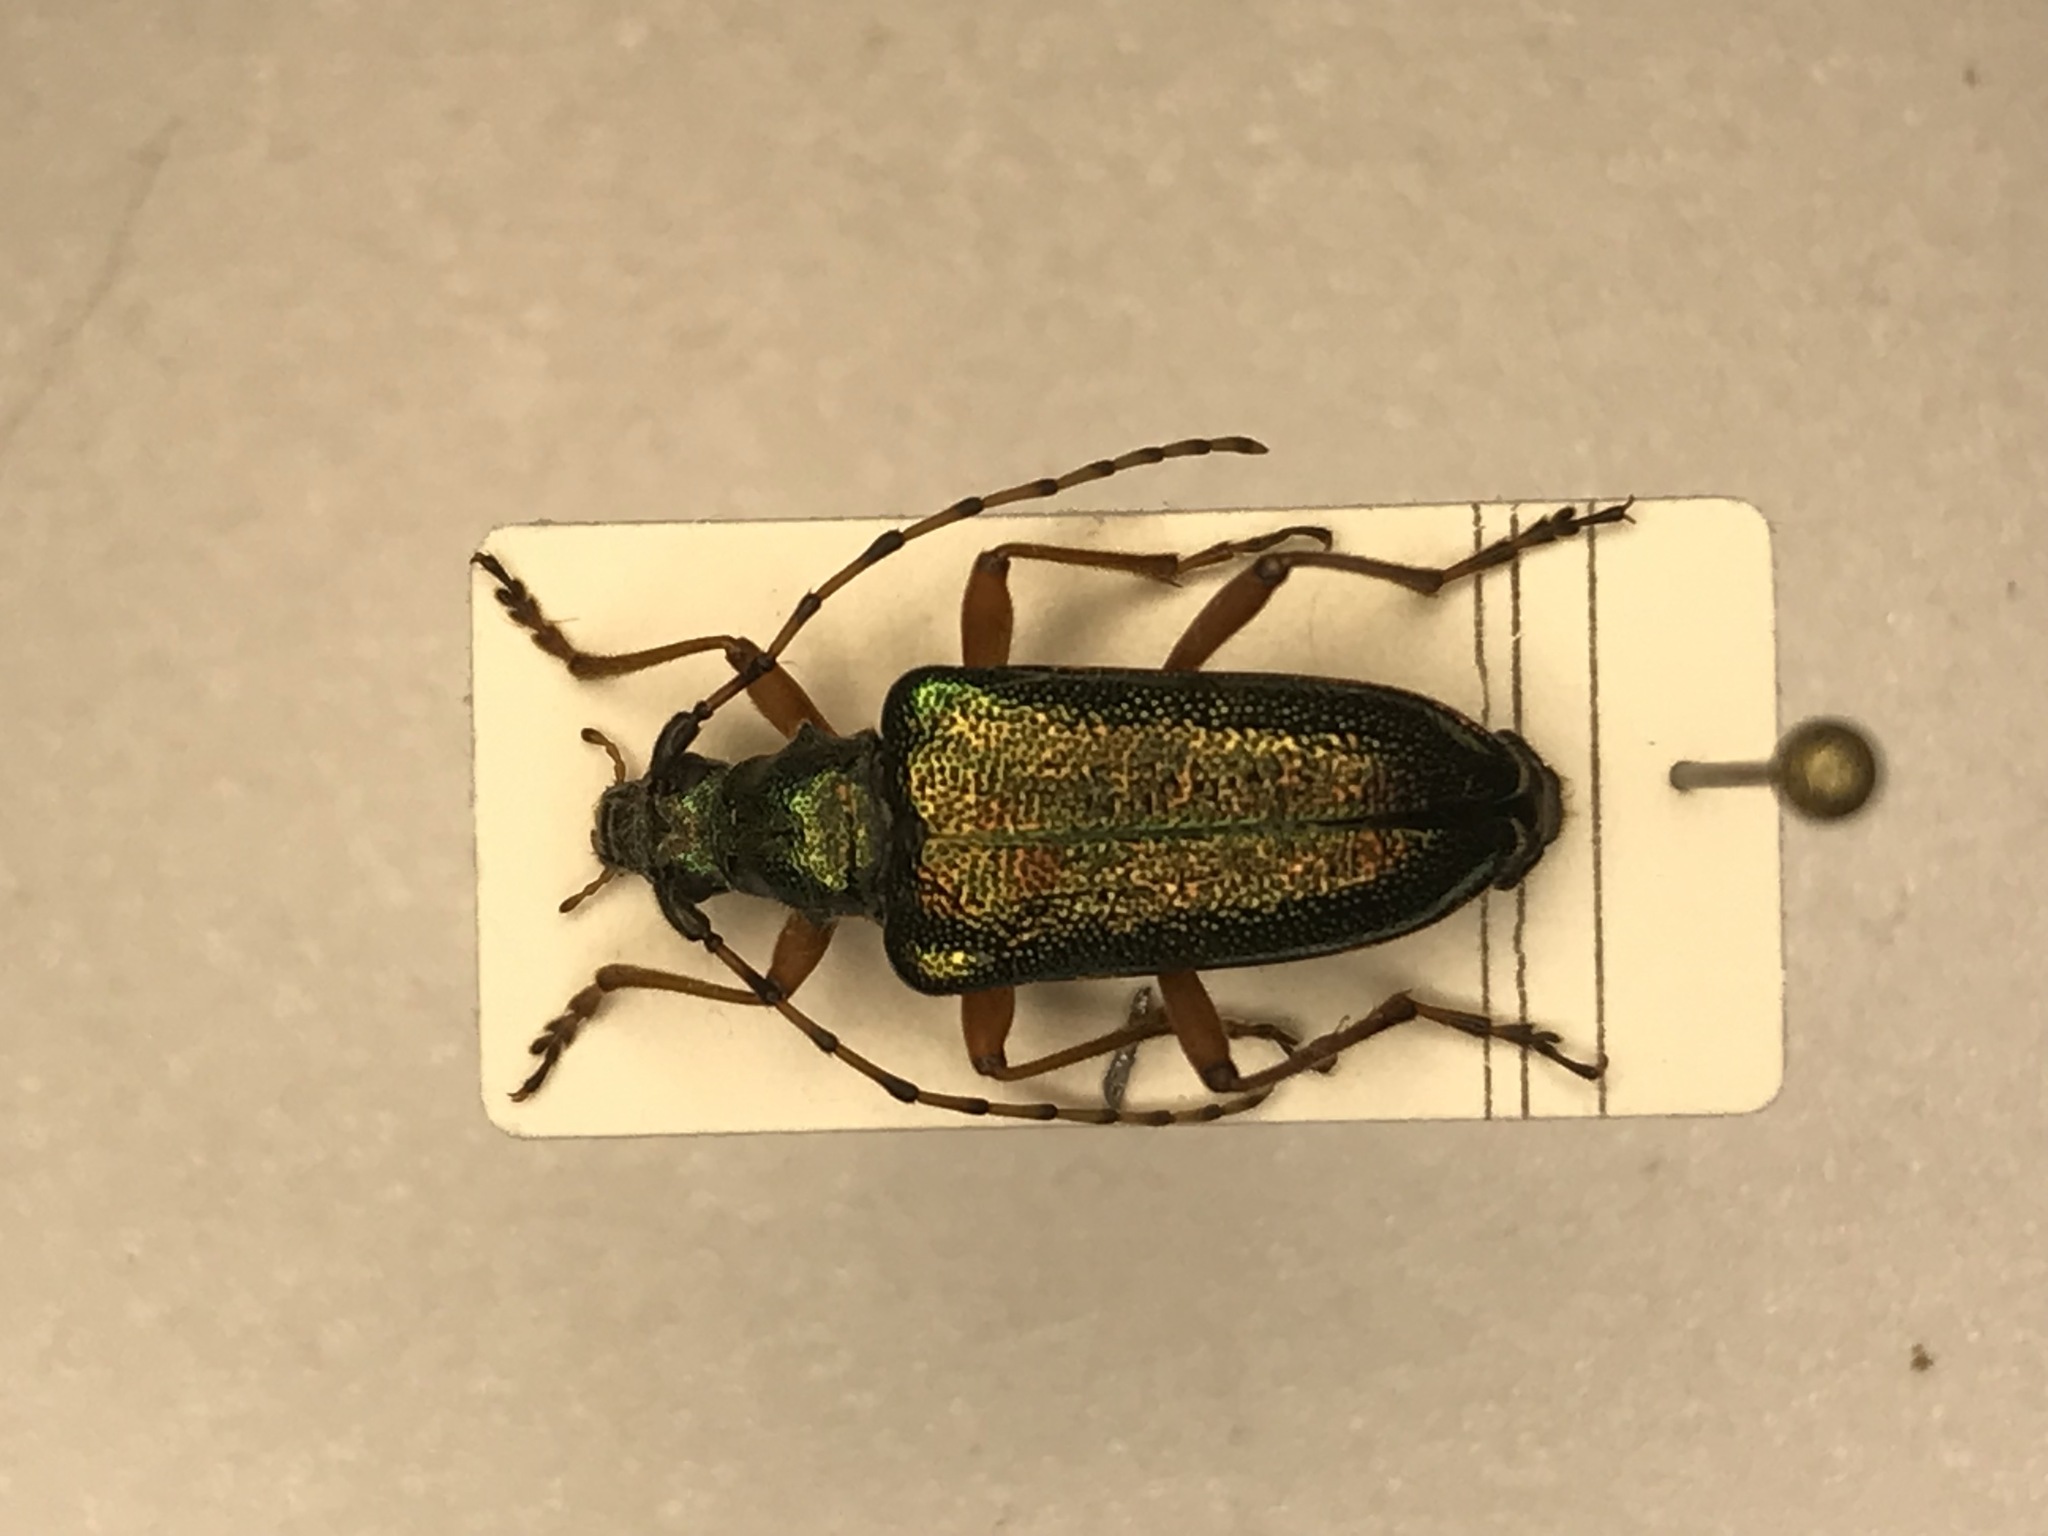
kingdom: Animalia
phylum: Arthropoda
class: Insecta
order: Coleoptera
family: Cerambycidae
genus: Anthophylax
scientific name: Anthophylax cyaneus
